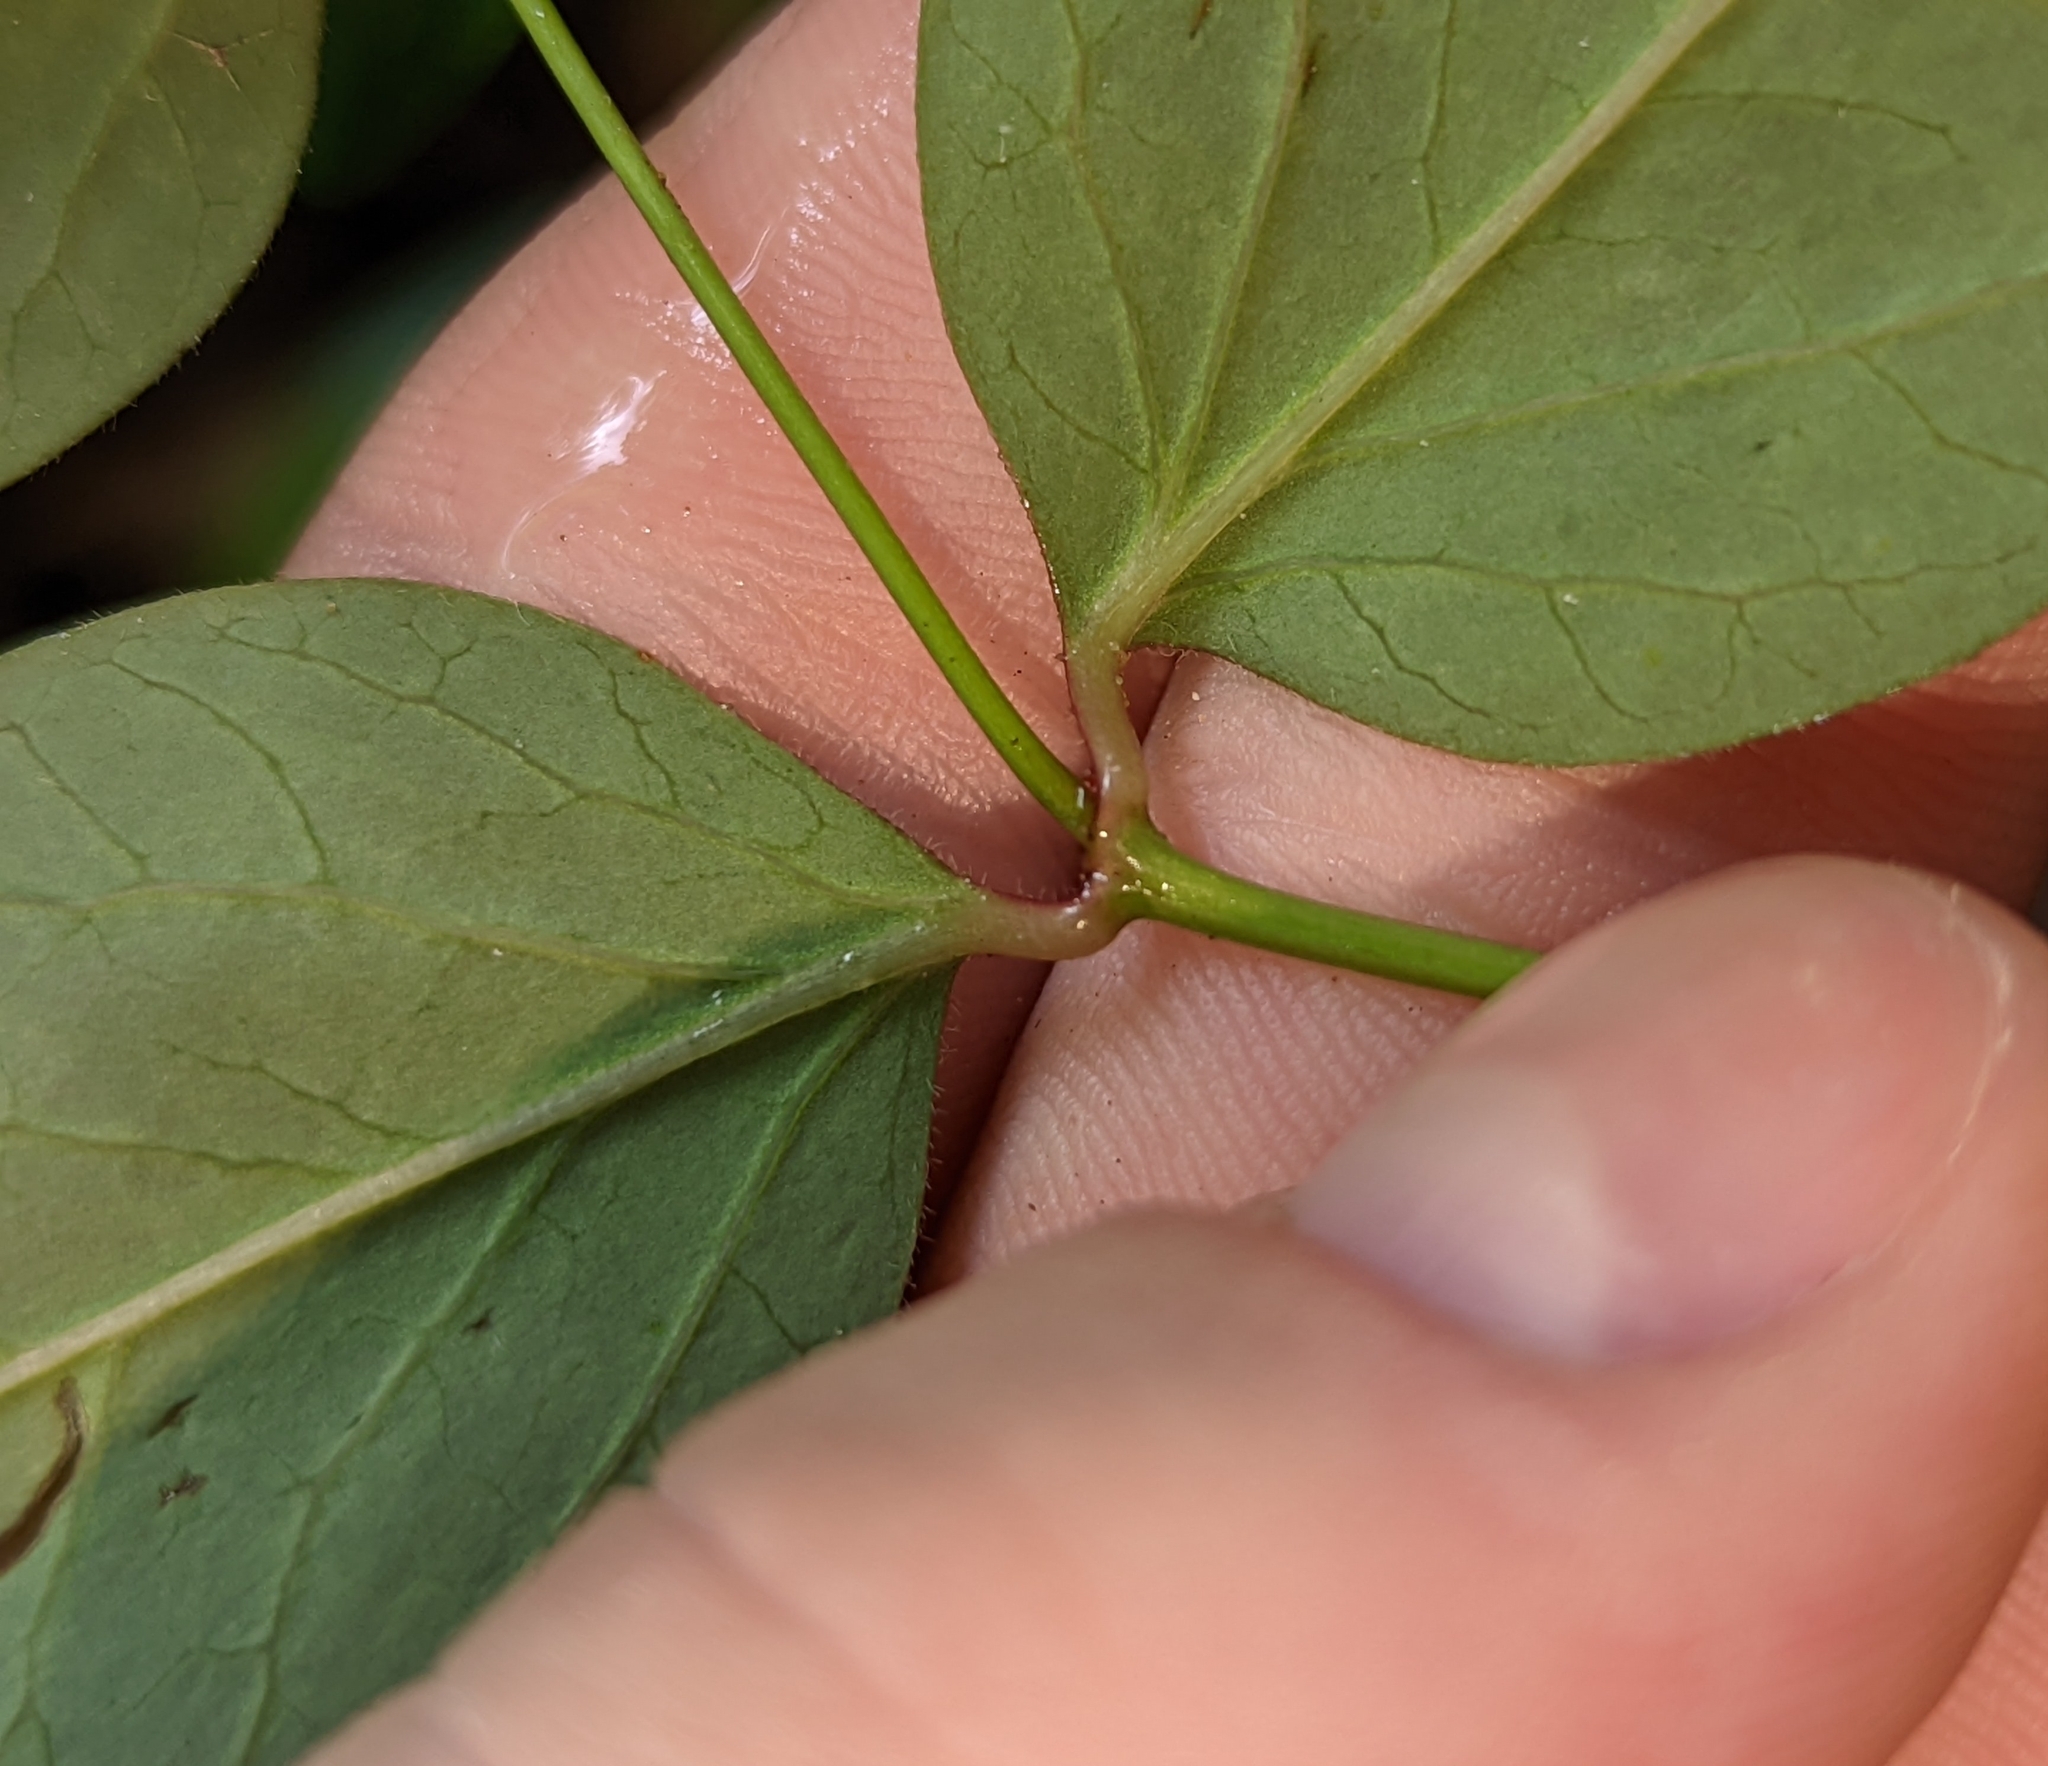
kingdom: Plantae
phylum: Tracheophyta
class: Magnoliopsida
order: Malpighiales
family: Euphorbiaceae
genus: Euphorbia
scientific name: Euphorbia mercurialina
